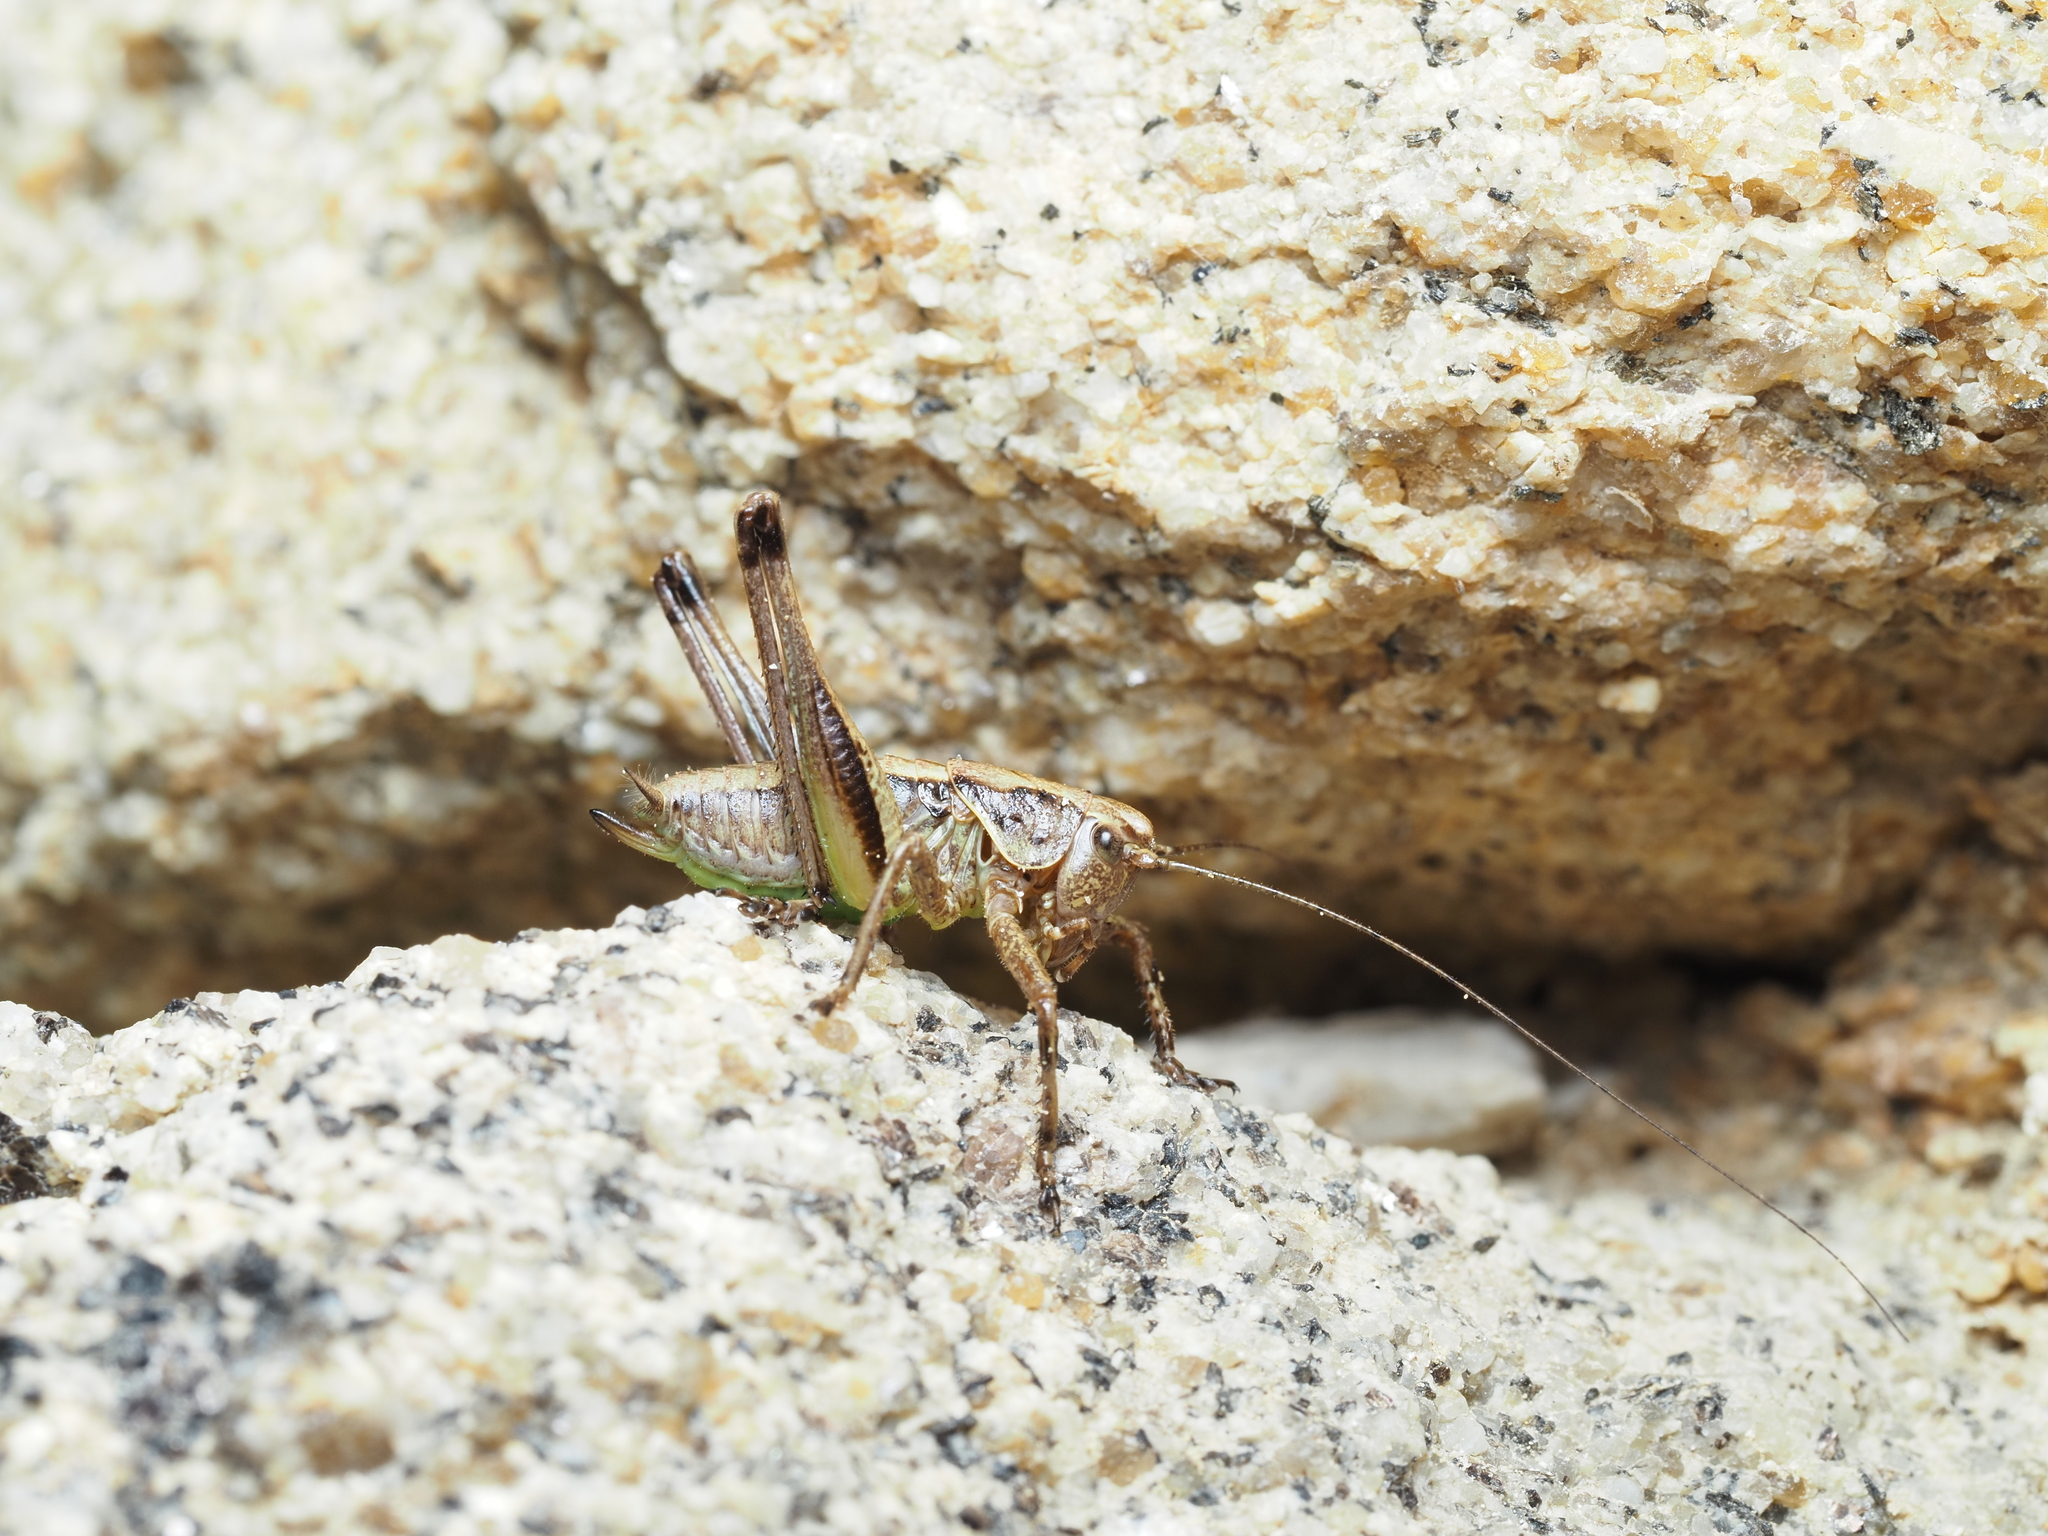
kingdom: Animalia
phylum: Arthropoda
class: Insecta
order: Orthoptera
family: Tettigoniidae
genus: Pholidoptera
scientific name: Pholidoptera griseoaptera
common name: Dark bush-cricket
